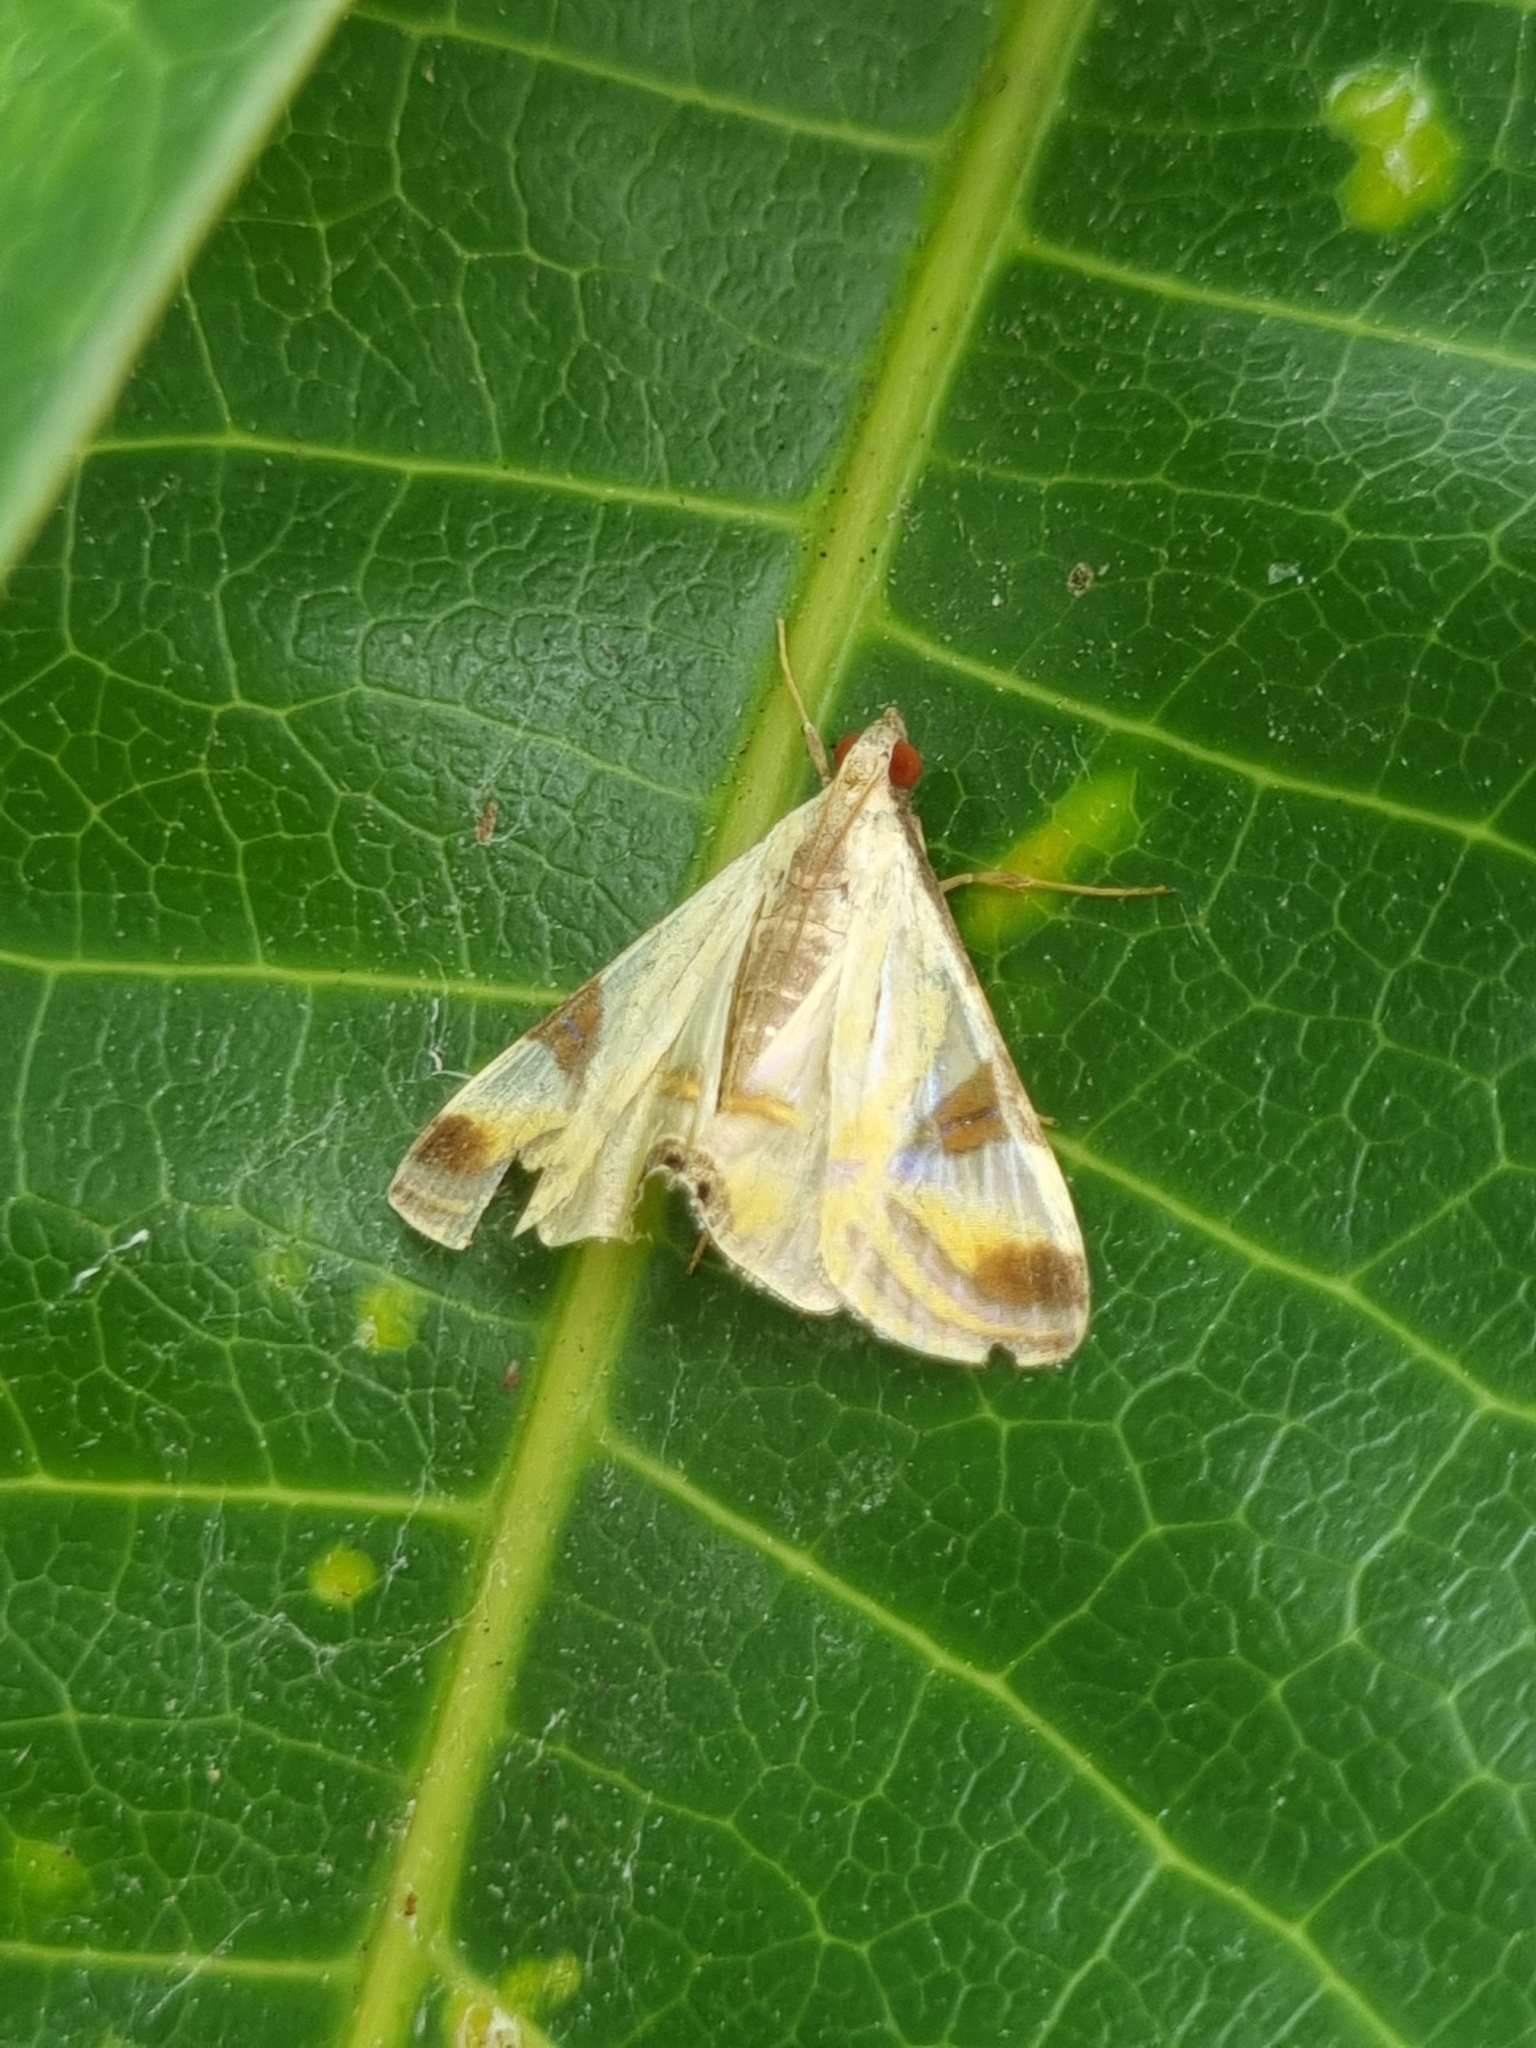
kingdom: Animalia
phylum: Arthropoda
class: Insecta
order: Lepidoptera
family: Crambidae
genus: Talanga
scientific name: Talanga tolumnialis
